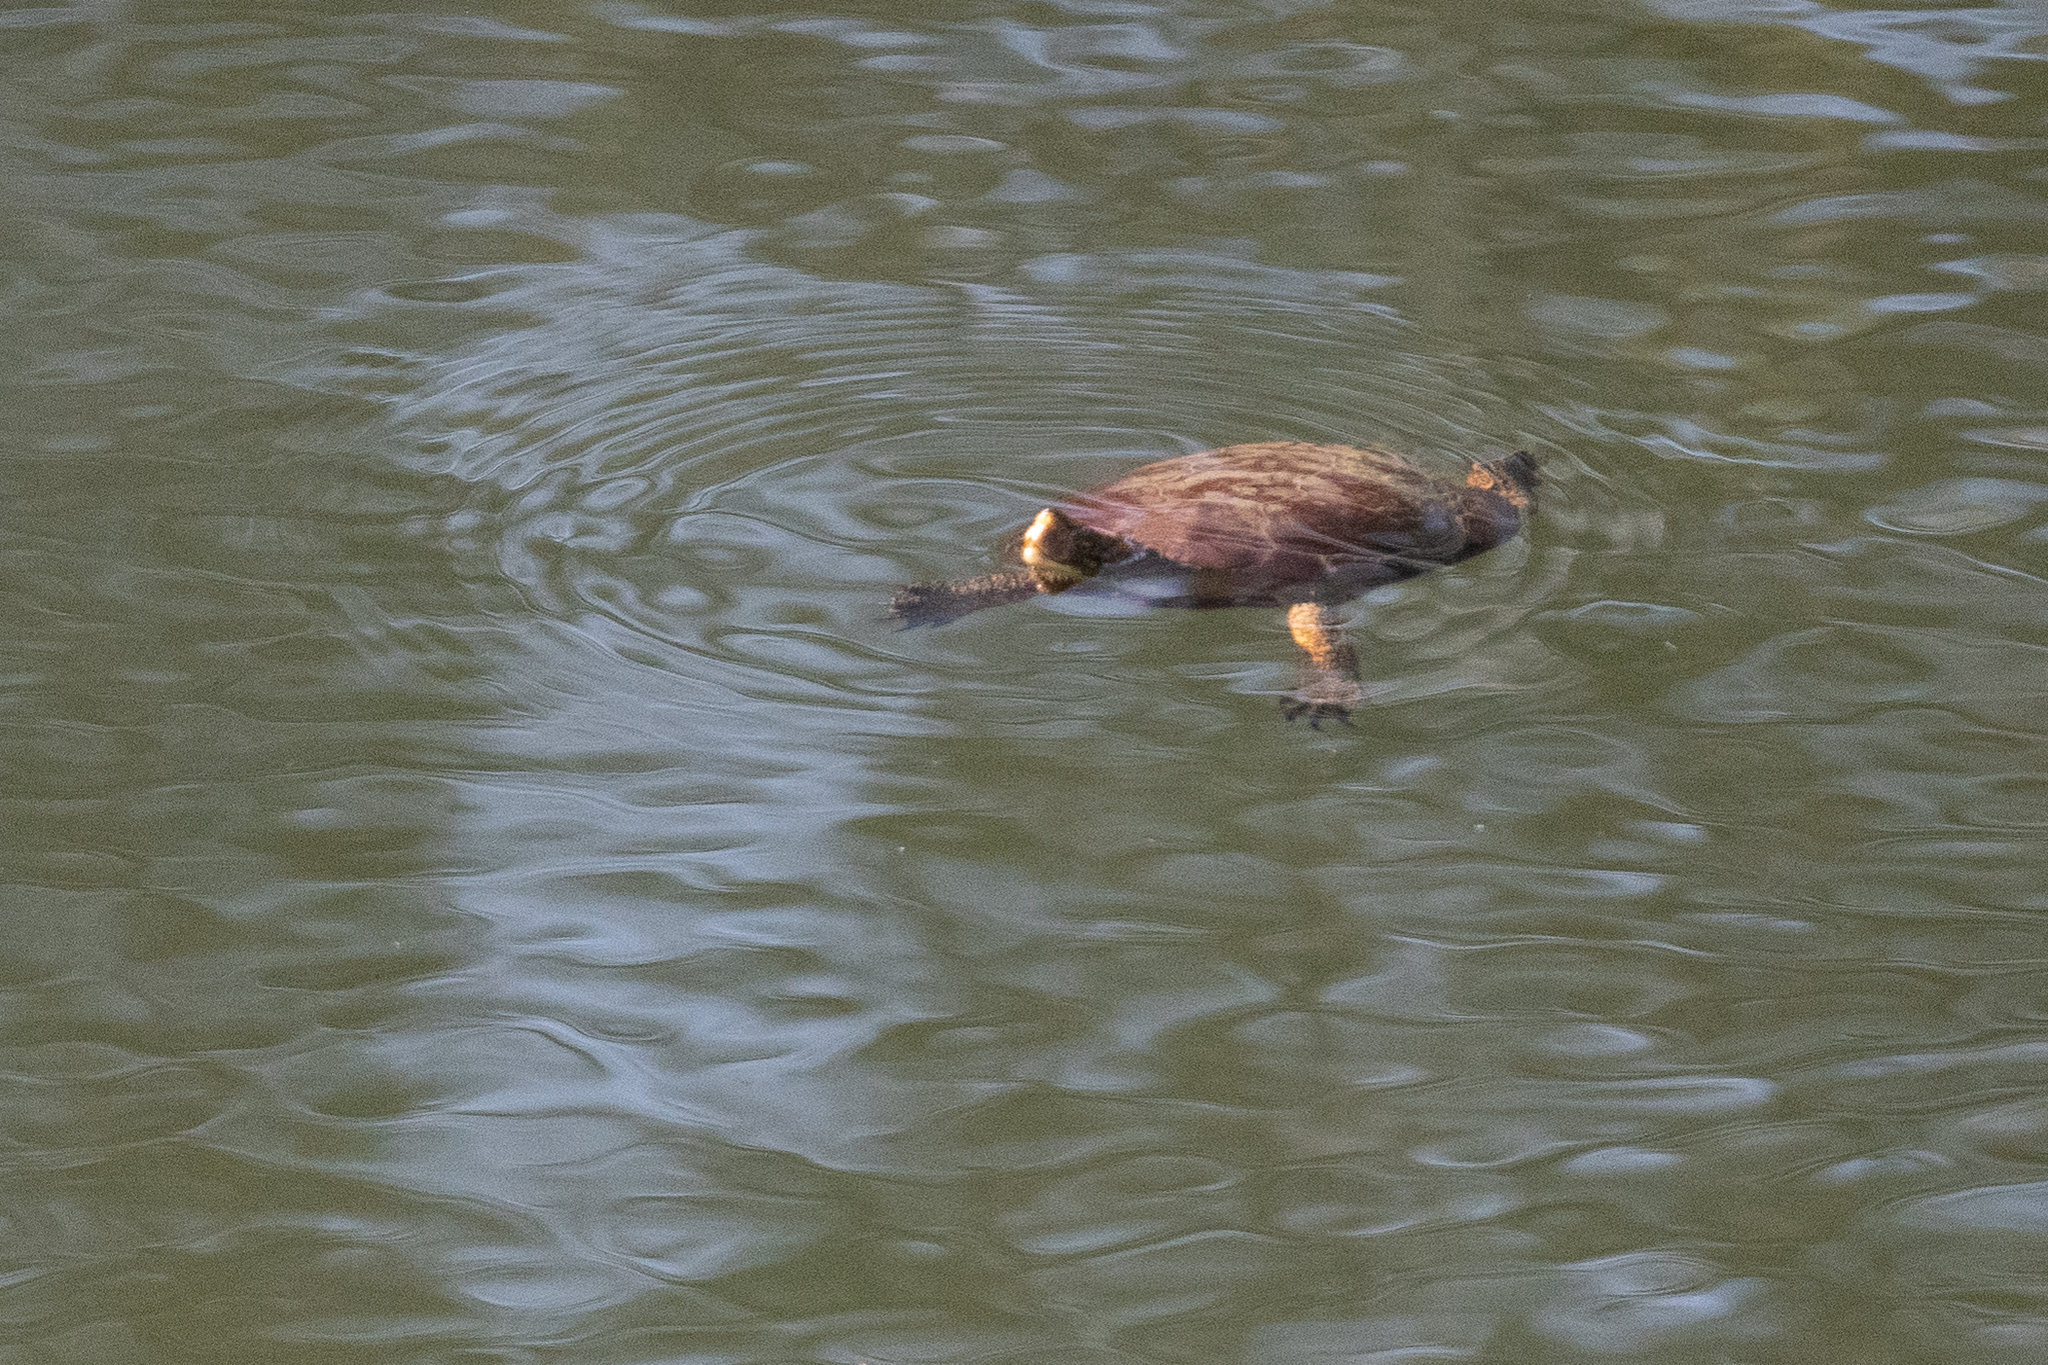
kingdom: Animalia
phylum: Chordata
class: Testudines
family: Emydidae
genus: Actinemys
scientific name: Actinemys marmorata
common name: Western pond turtle
